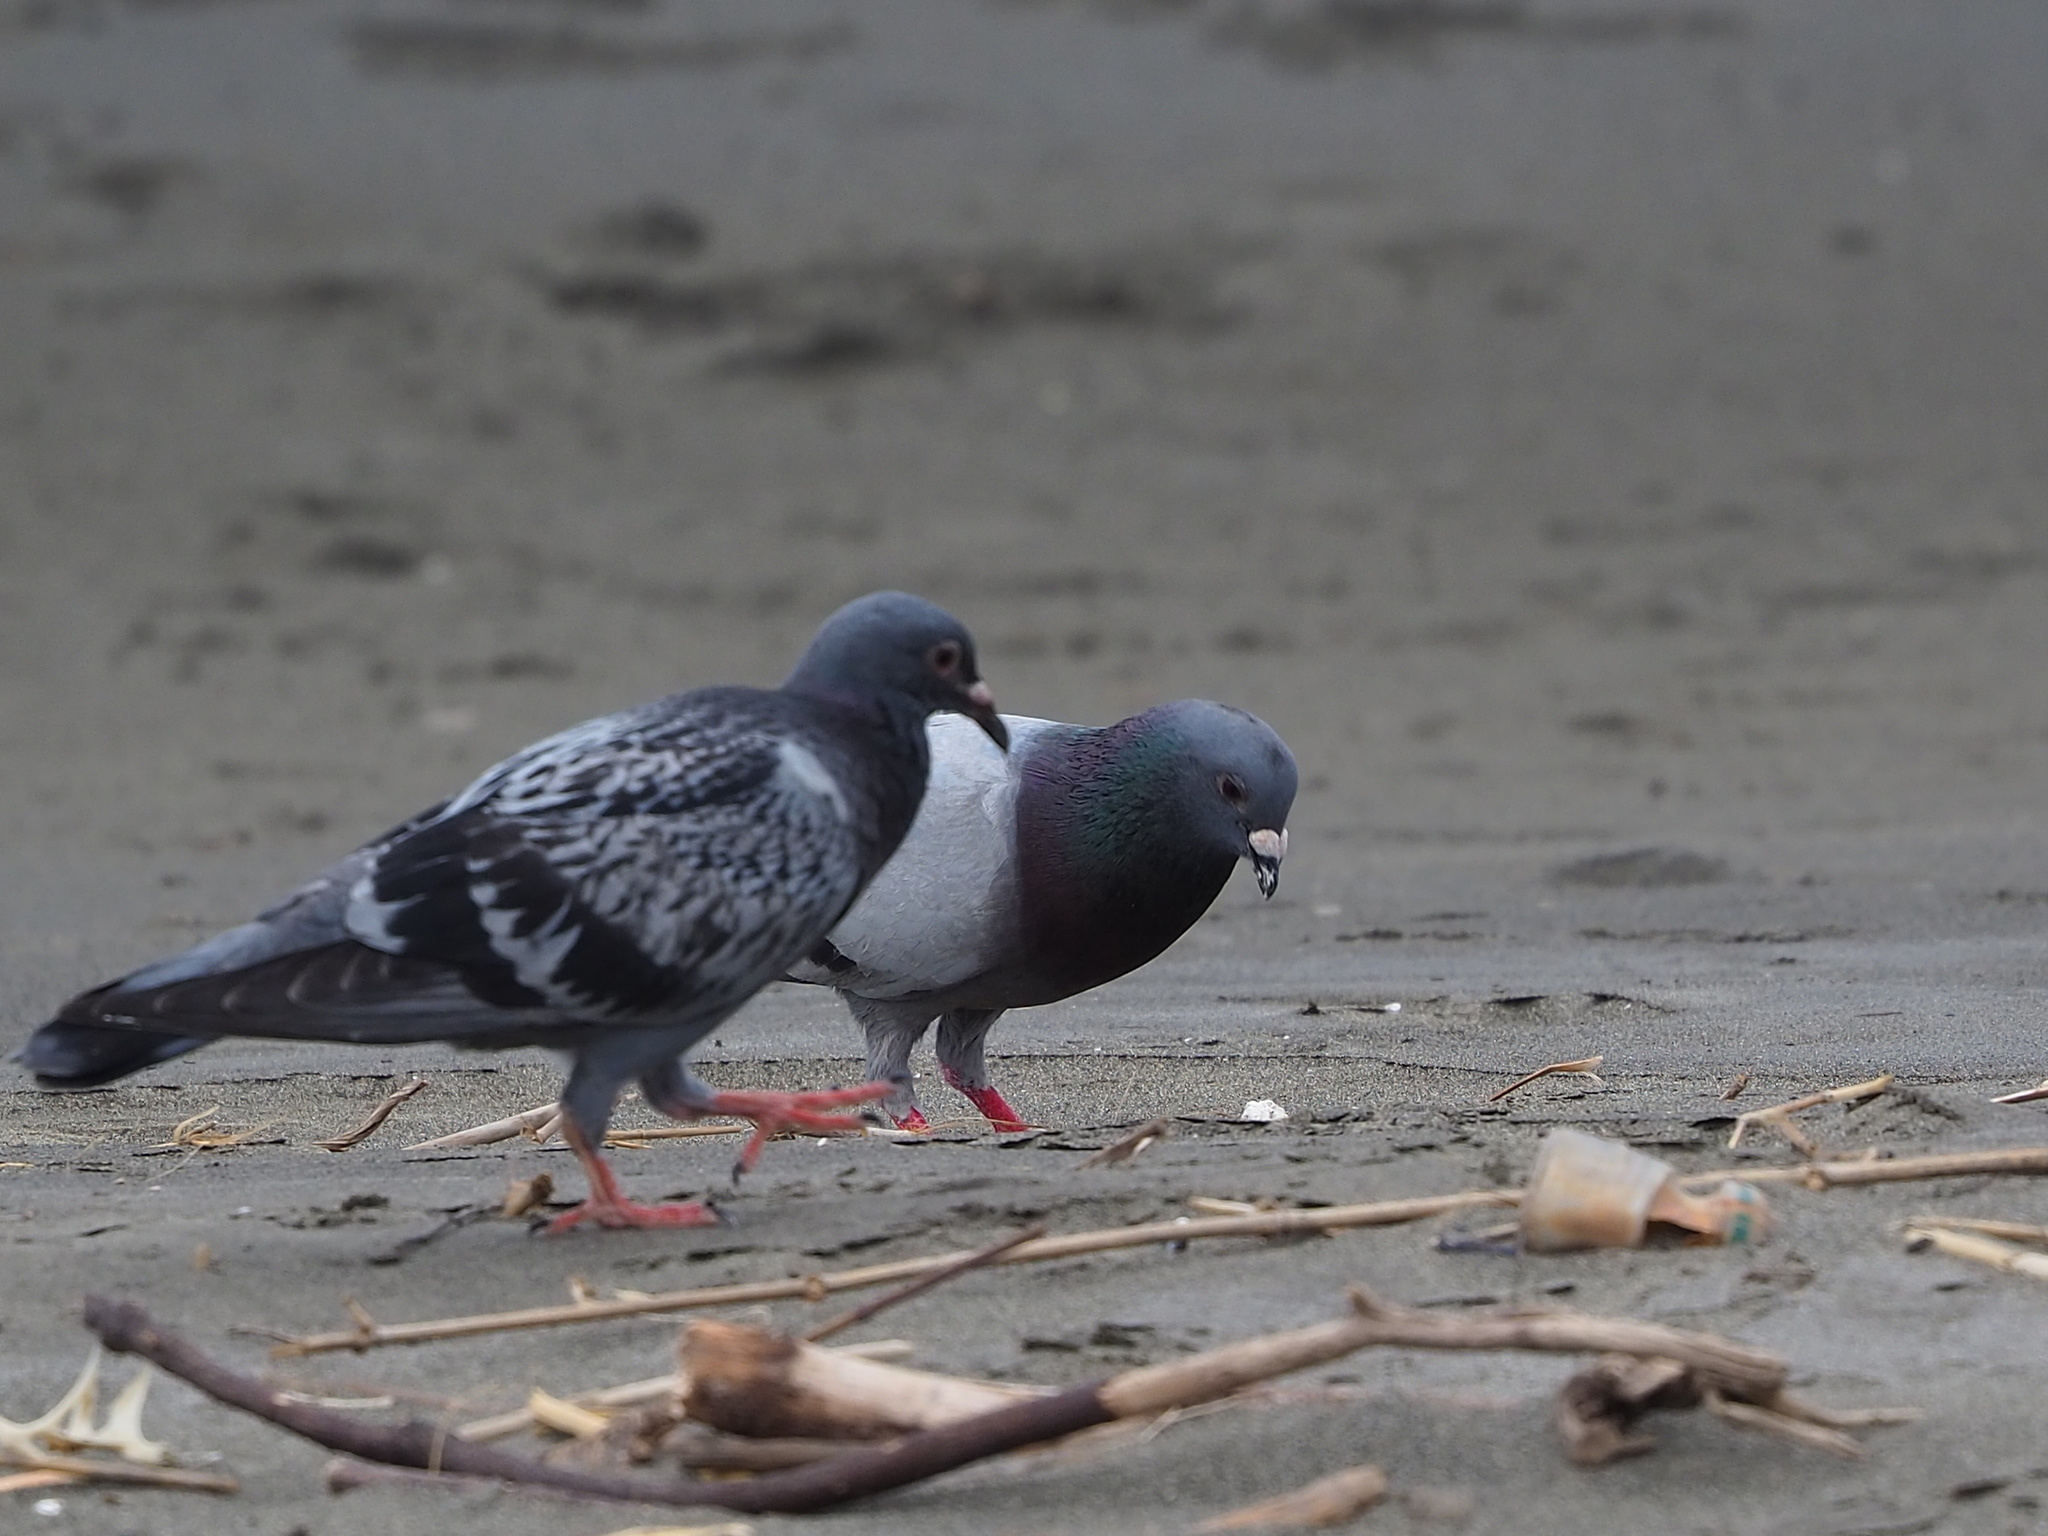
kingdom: Animalia
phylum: Chordata
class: Aves
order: Columbiformes
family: Columbidae
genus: Columba
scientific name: Columba livia
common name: Rock pigeon
